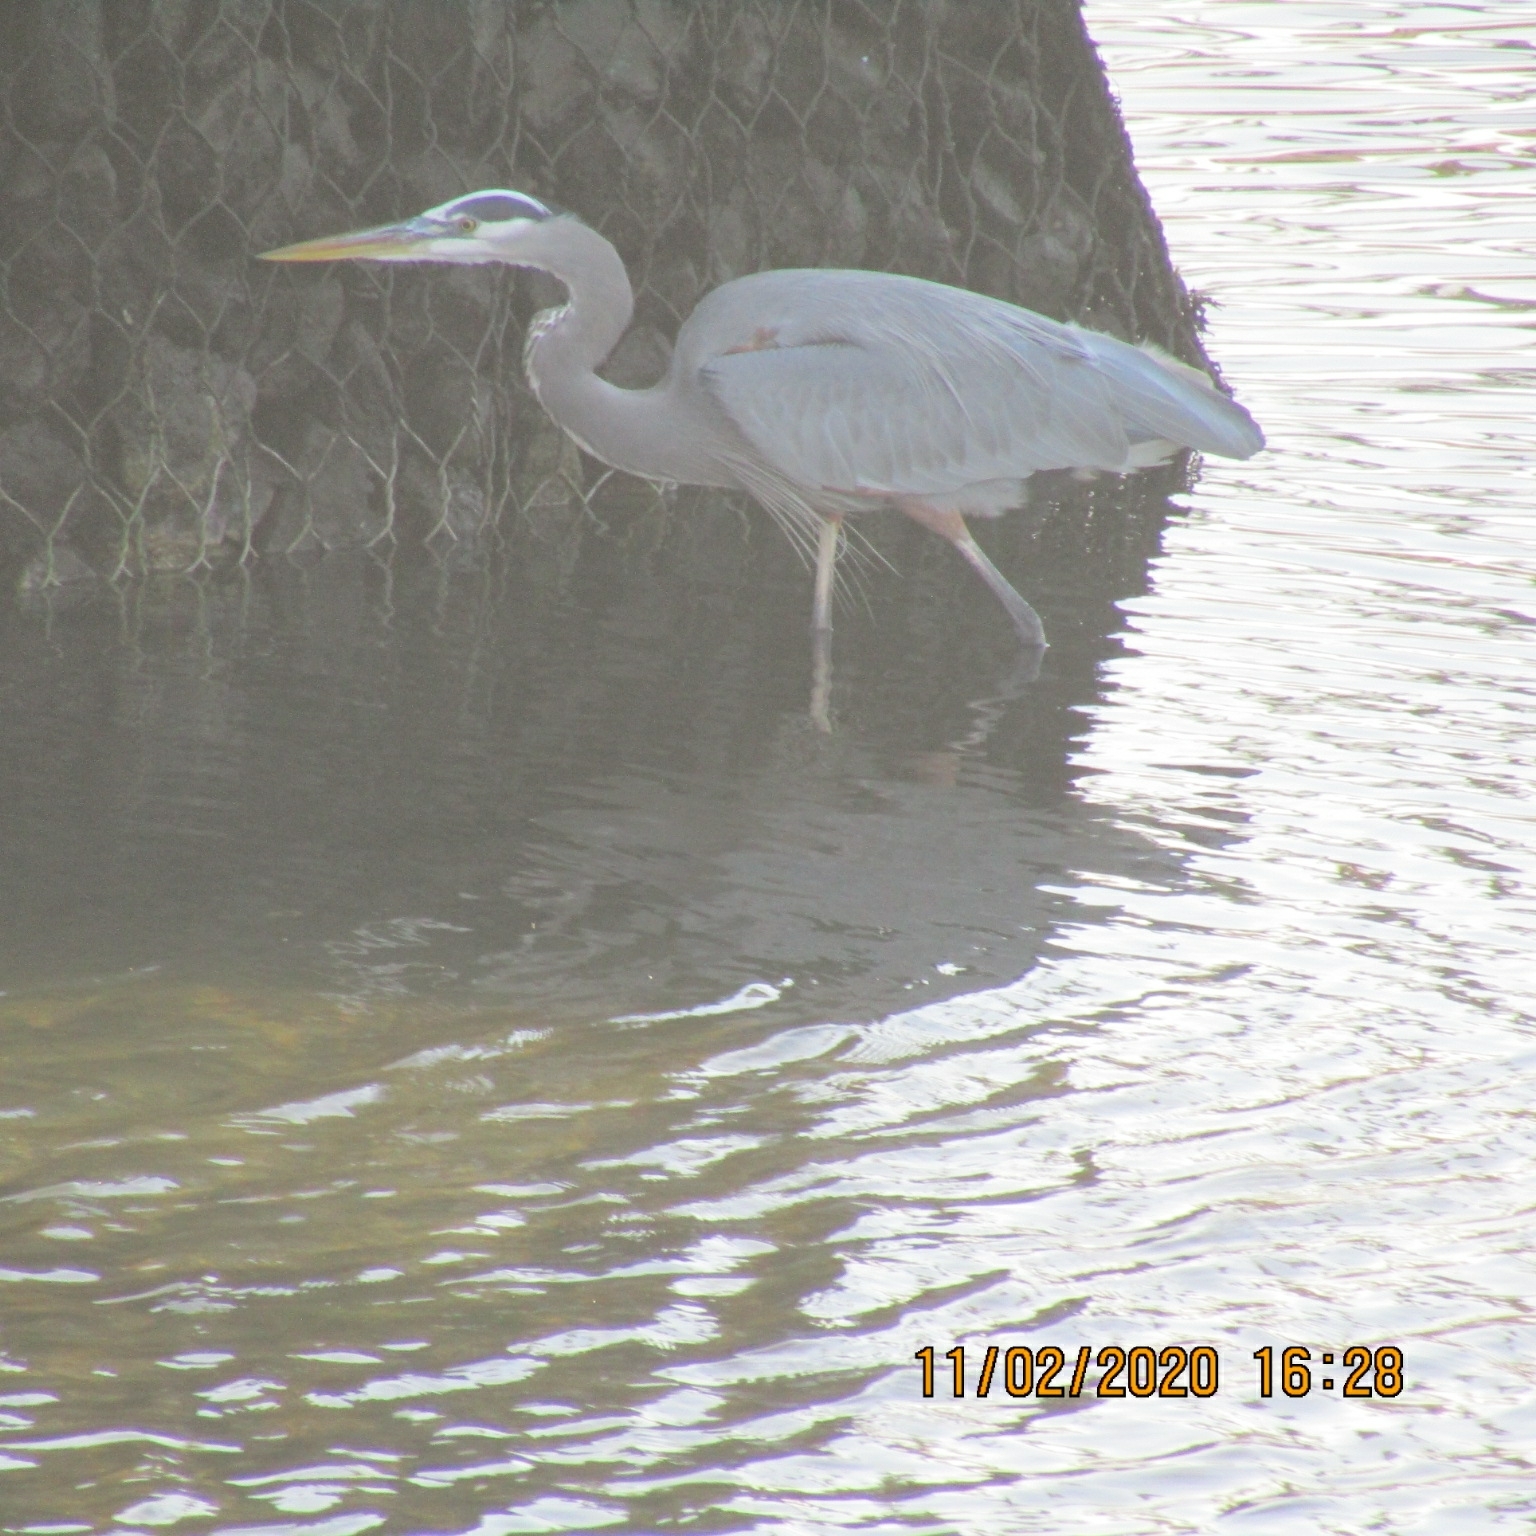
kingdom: Animalia
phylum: Chordata
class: Aves
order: Pelecaniformes
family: Ardeidae
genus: Ardea
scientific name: Ardea herodias
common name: Great blue heron
